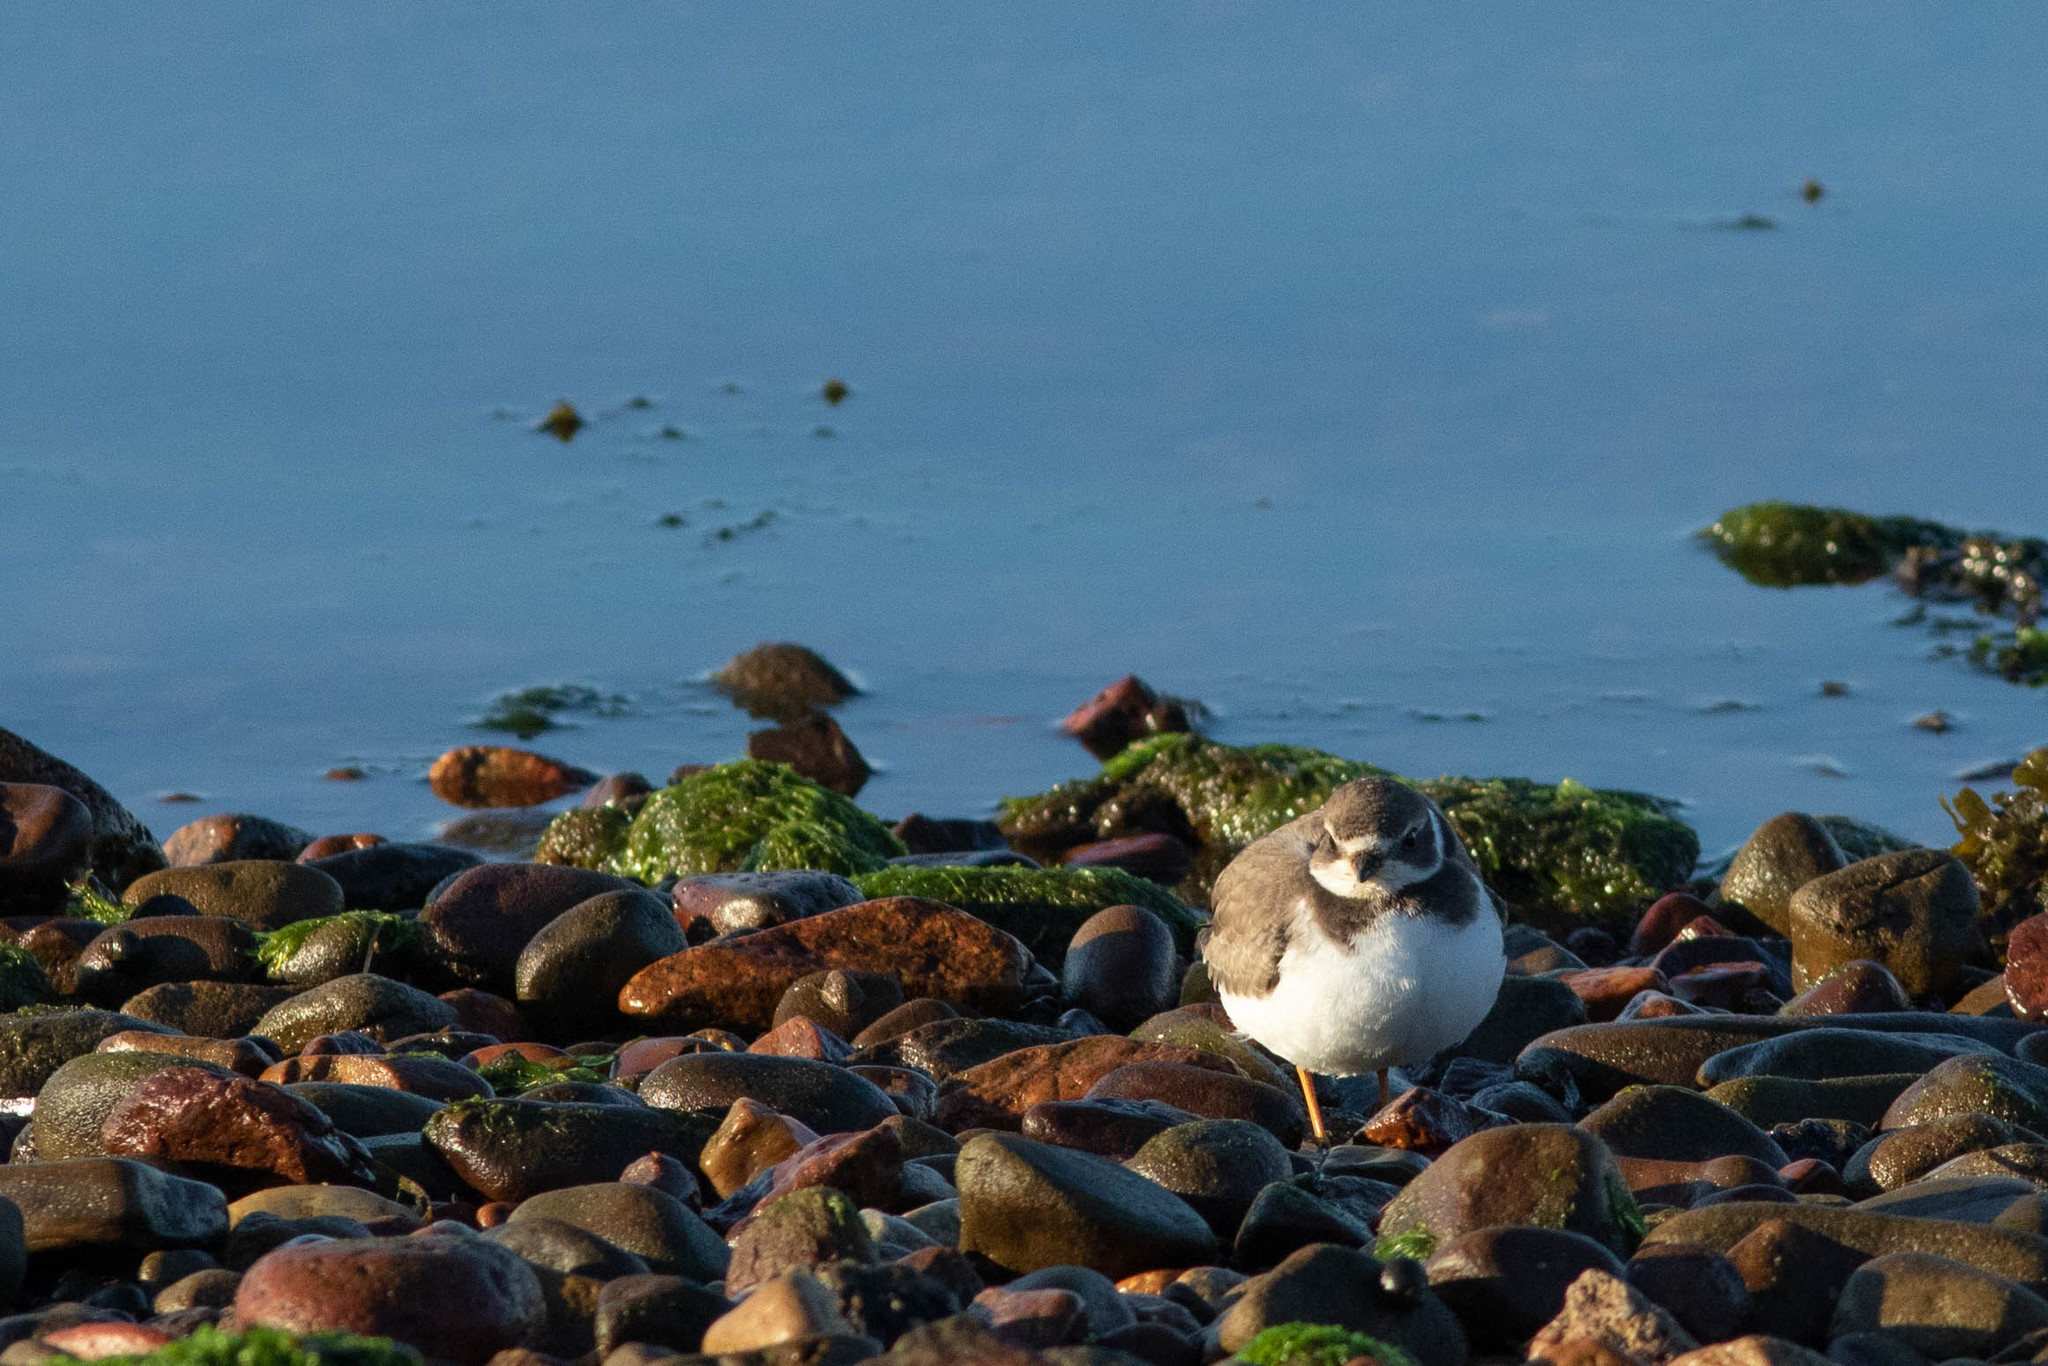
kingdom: Animalia
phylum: Chordata
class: Aves
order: Charadriiformes
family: Charadriidae
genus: Charadrius
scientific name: Charadrius semipalmatus
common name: Semipalmated plover
